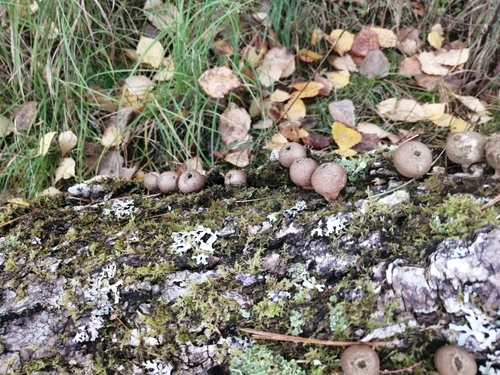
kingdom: Fungi
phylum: Basidiomycota
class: Agaricomycetes
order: Agaricales
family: Lycoperdaceae
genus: Apioperdon
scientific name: Apioperdon pyriforme
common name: Pear-shaped puffball
